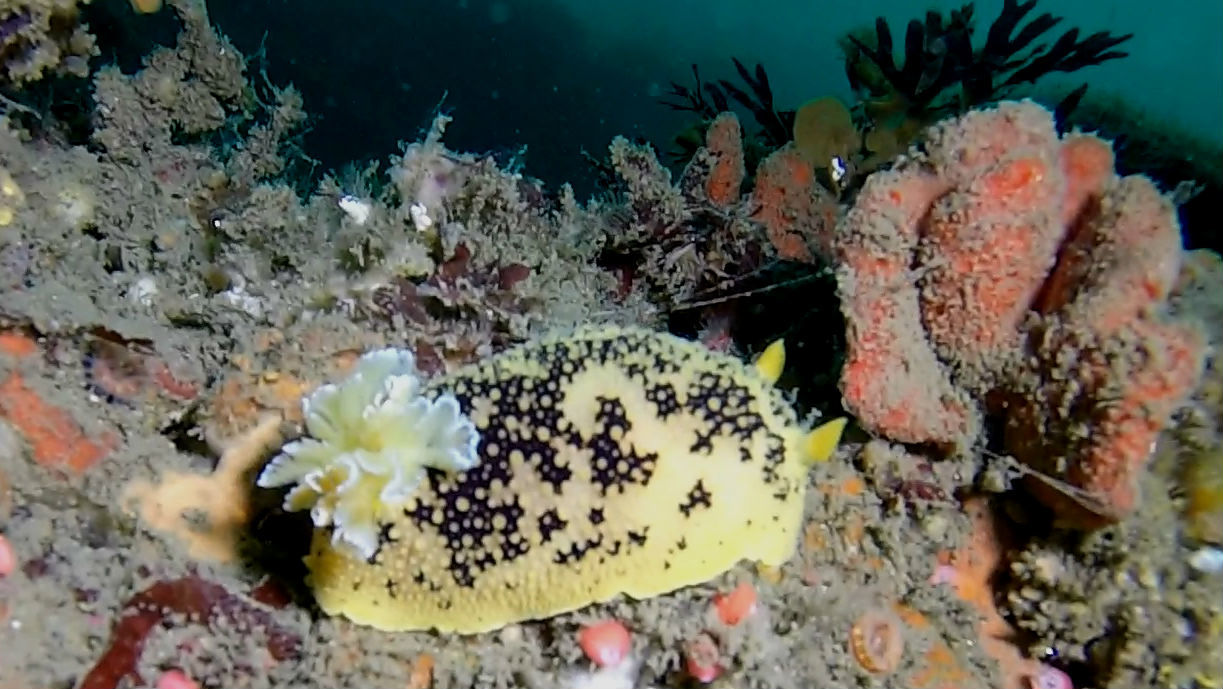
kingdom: Animalia
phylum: Mollusca
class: Gastropoda
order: Nudibranchia
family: Discodorididae
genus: Peltodoris
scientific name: Peltodoris nobilis
